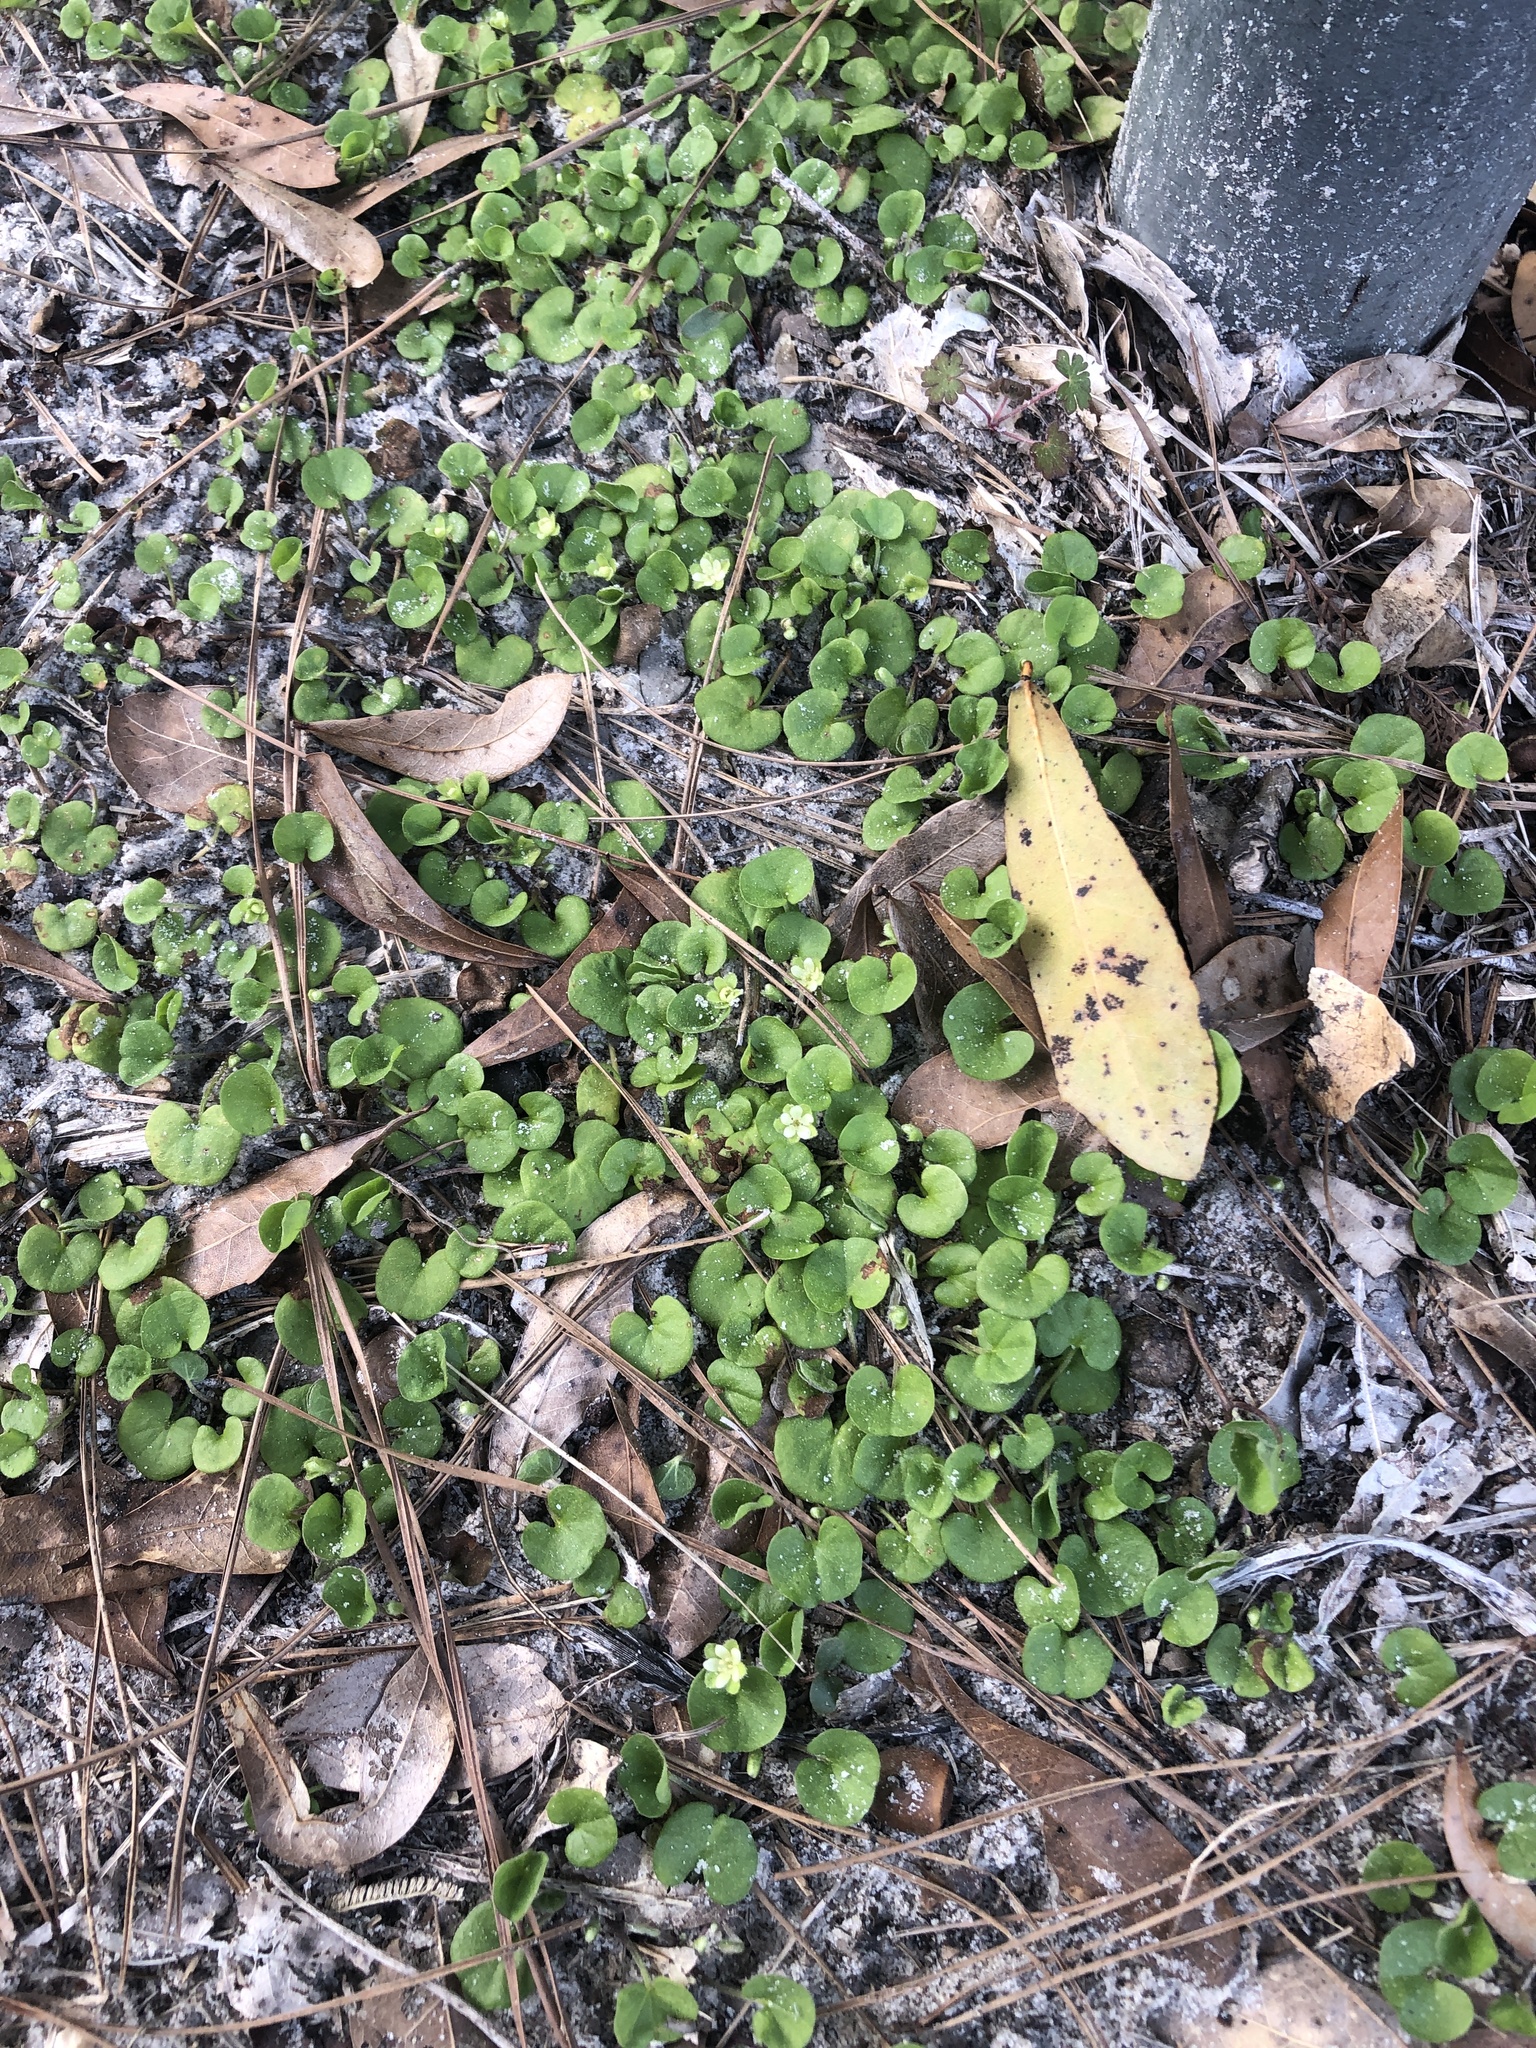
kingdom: Plantae
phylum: Tracheophyta
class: Magnoliopsida
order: Solanales
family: Convolvulaceae
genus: Dichondra
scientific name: Dichondra carolinensis
